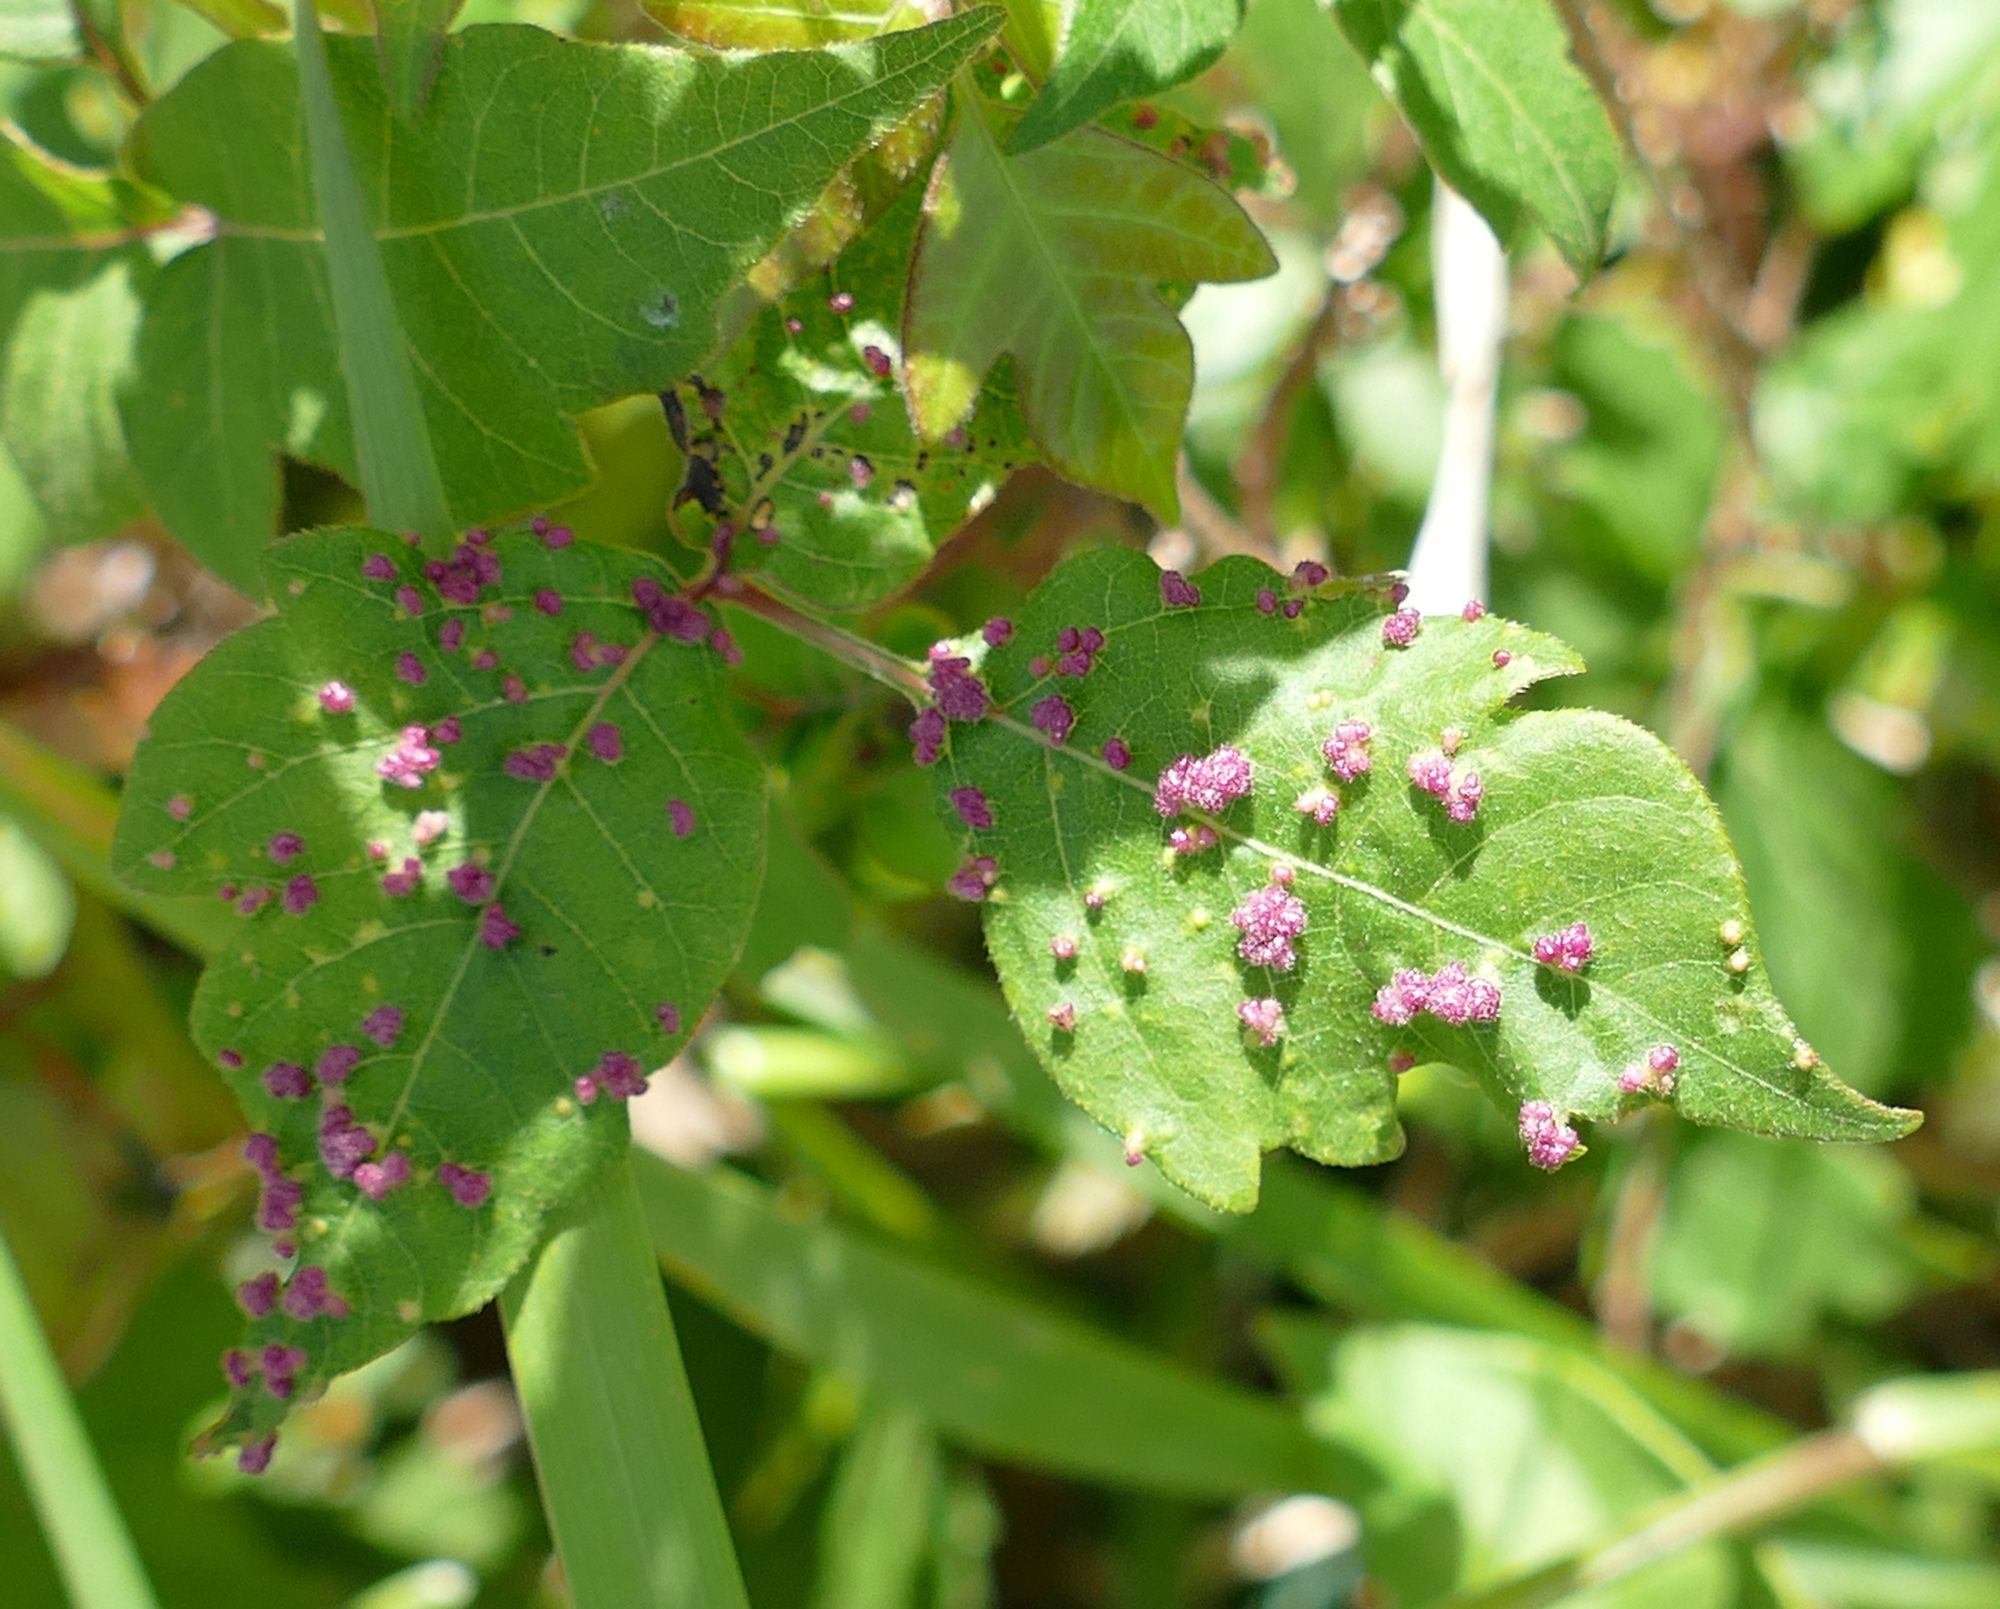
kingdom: Animalia
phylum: Arthropoda
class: Arachnida
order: Trombidiformes
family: Eriophyidae
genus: Aculops
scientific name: Aculops
